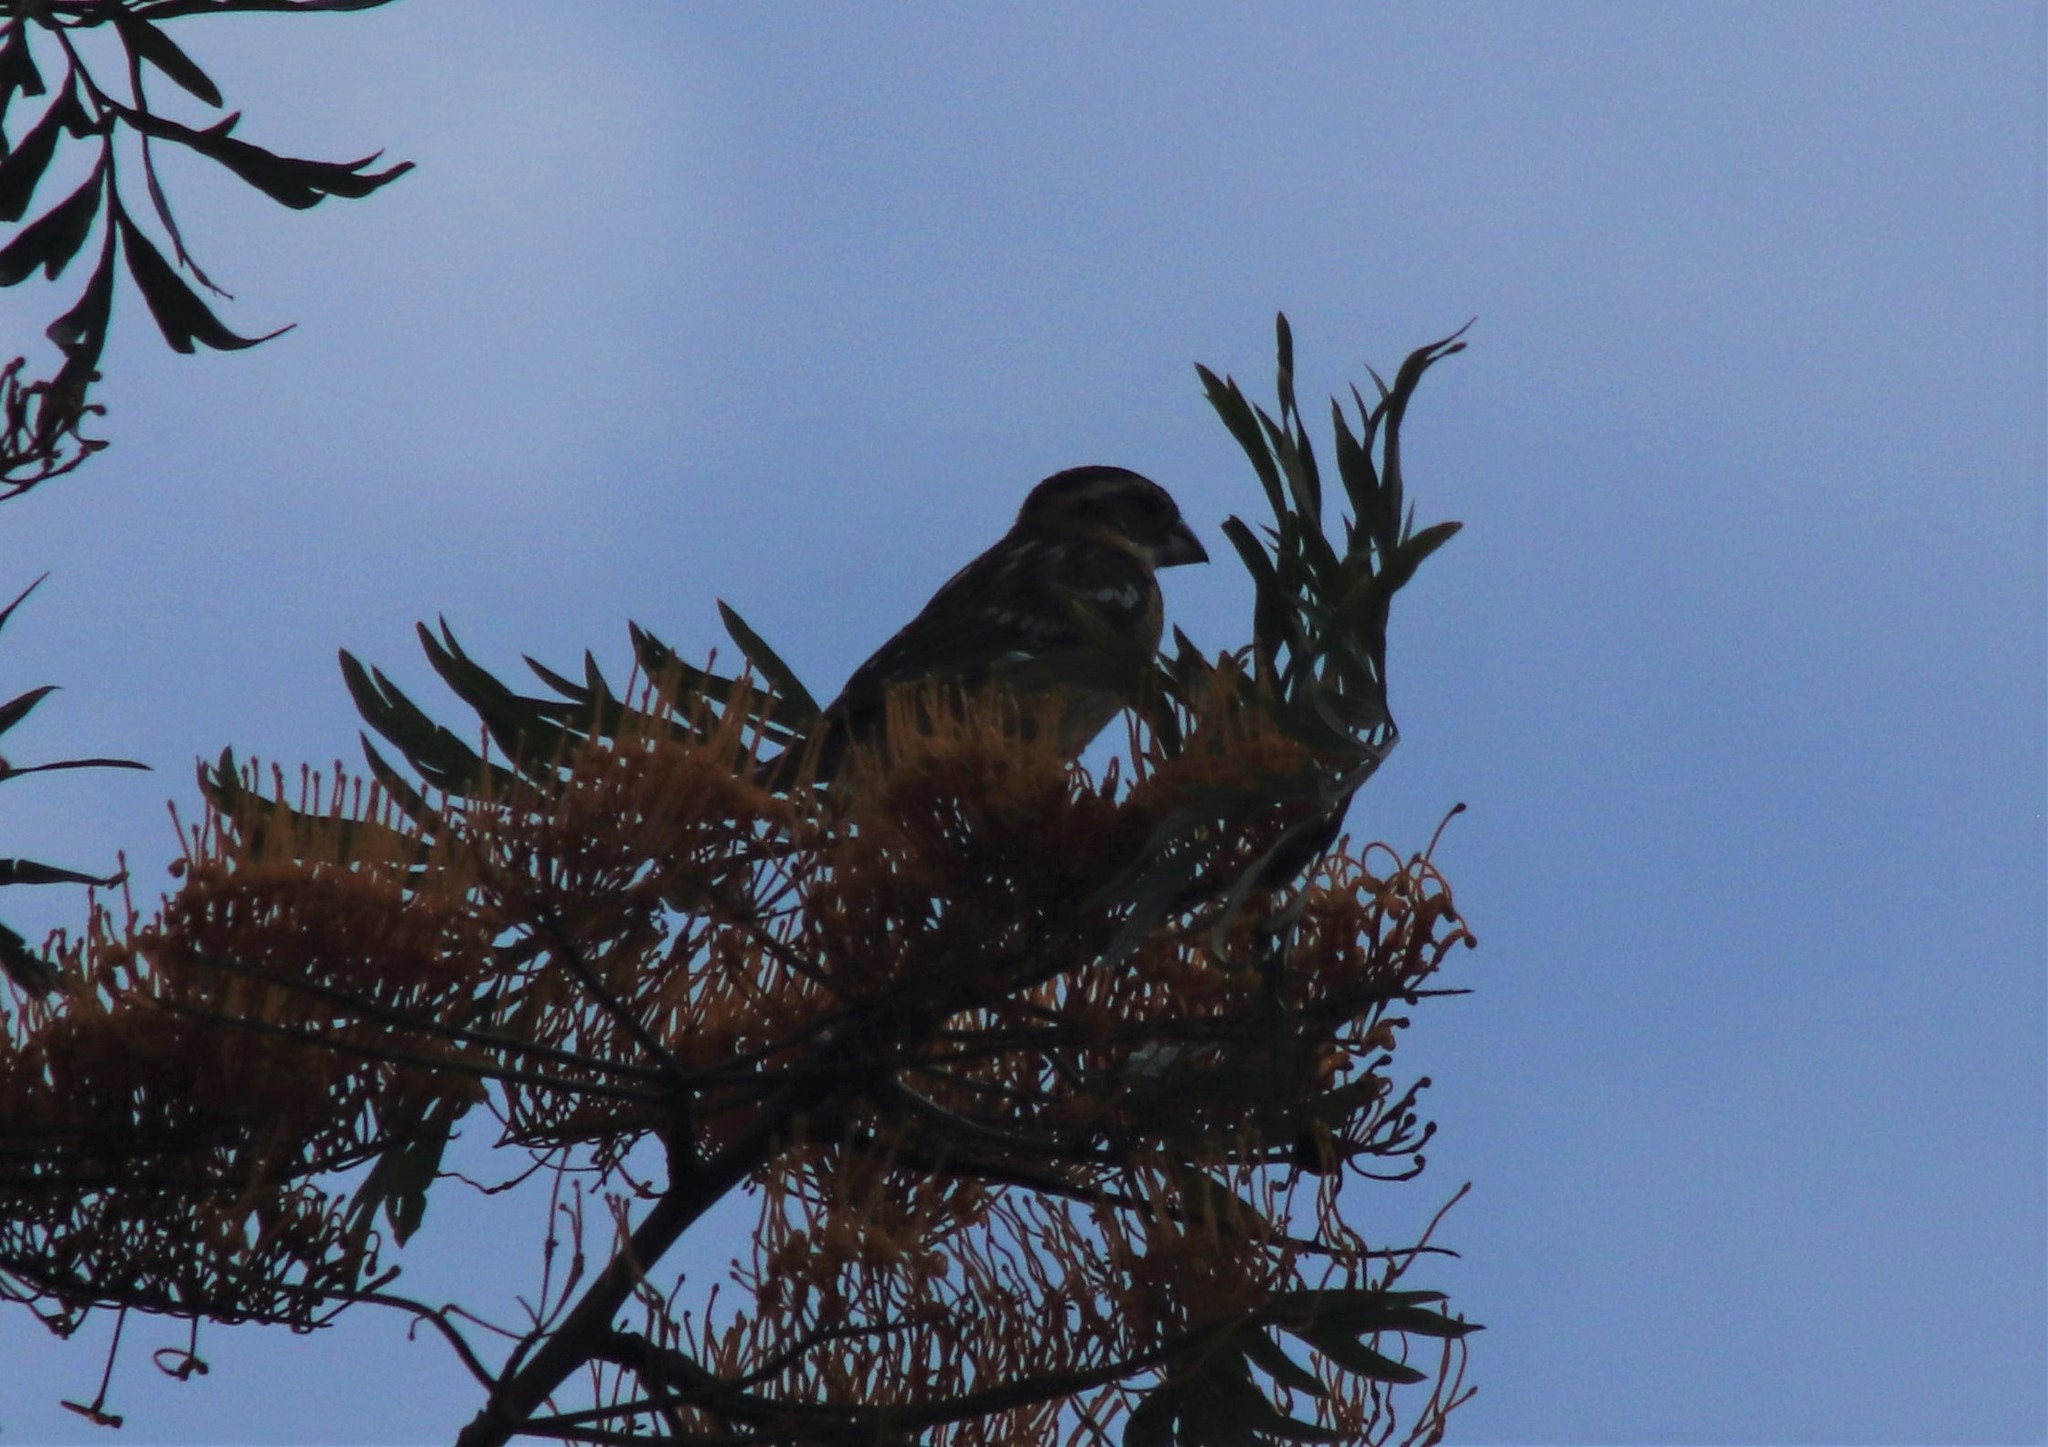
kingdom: Animalia
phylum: Chordata
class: Aves
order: Passeriformes
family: Cardinalidae
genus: Pheucticus
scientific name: Pheucticus melanocephalus
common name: Black-headed grosbeak
